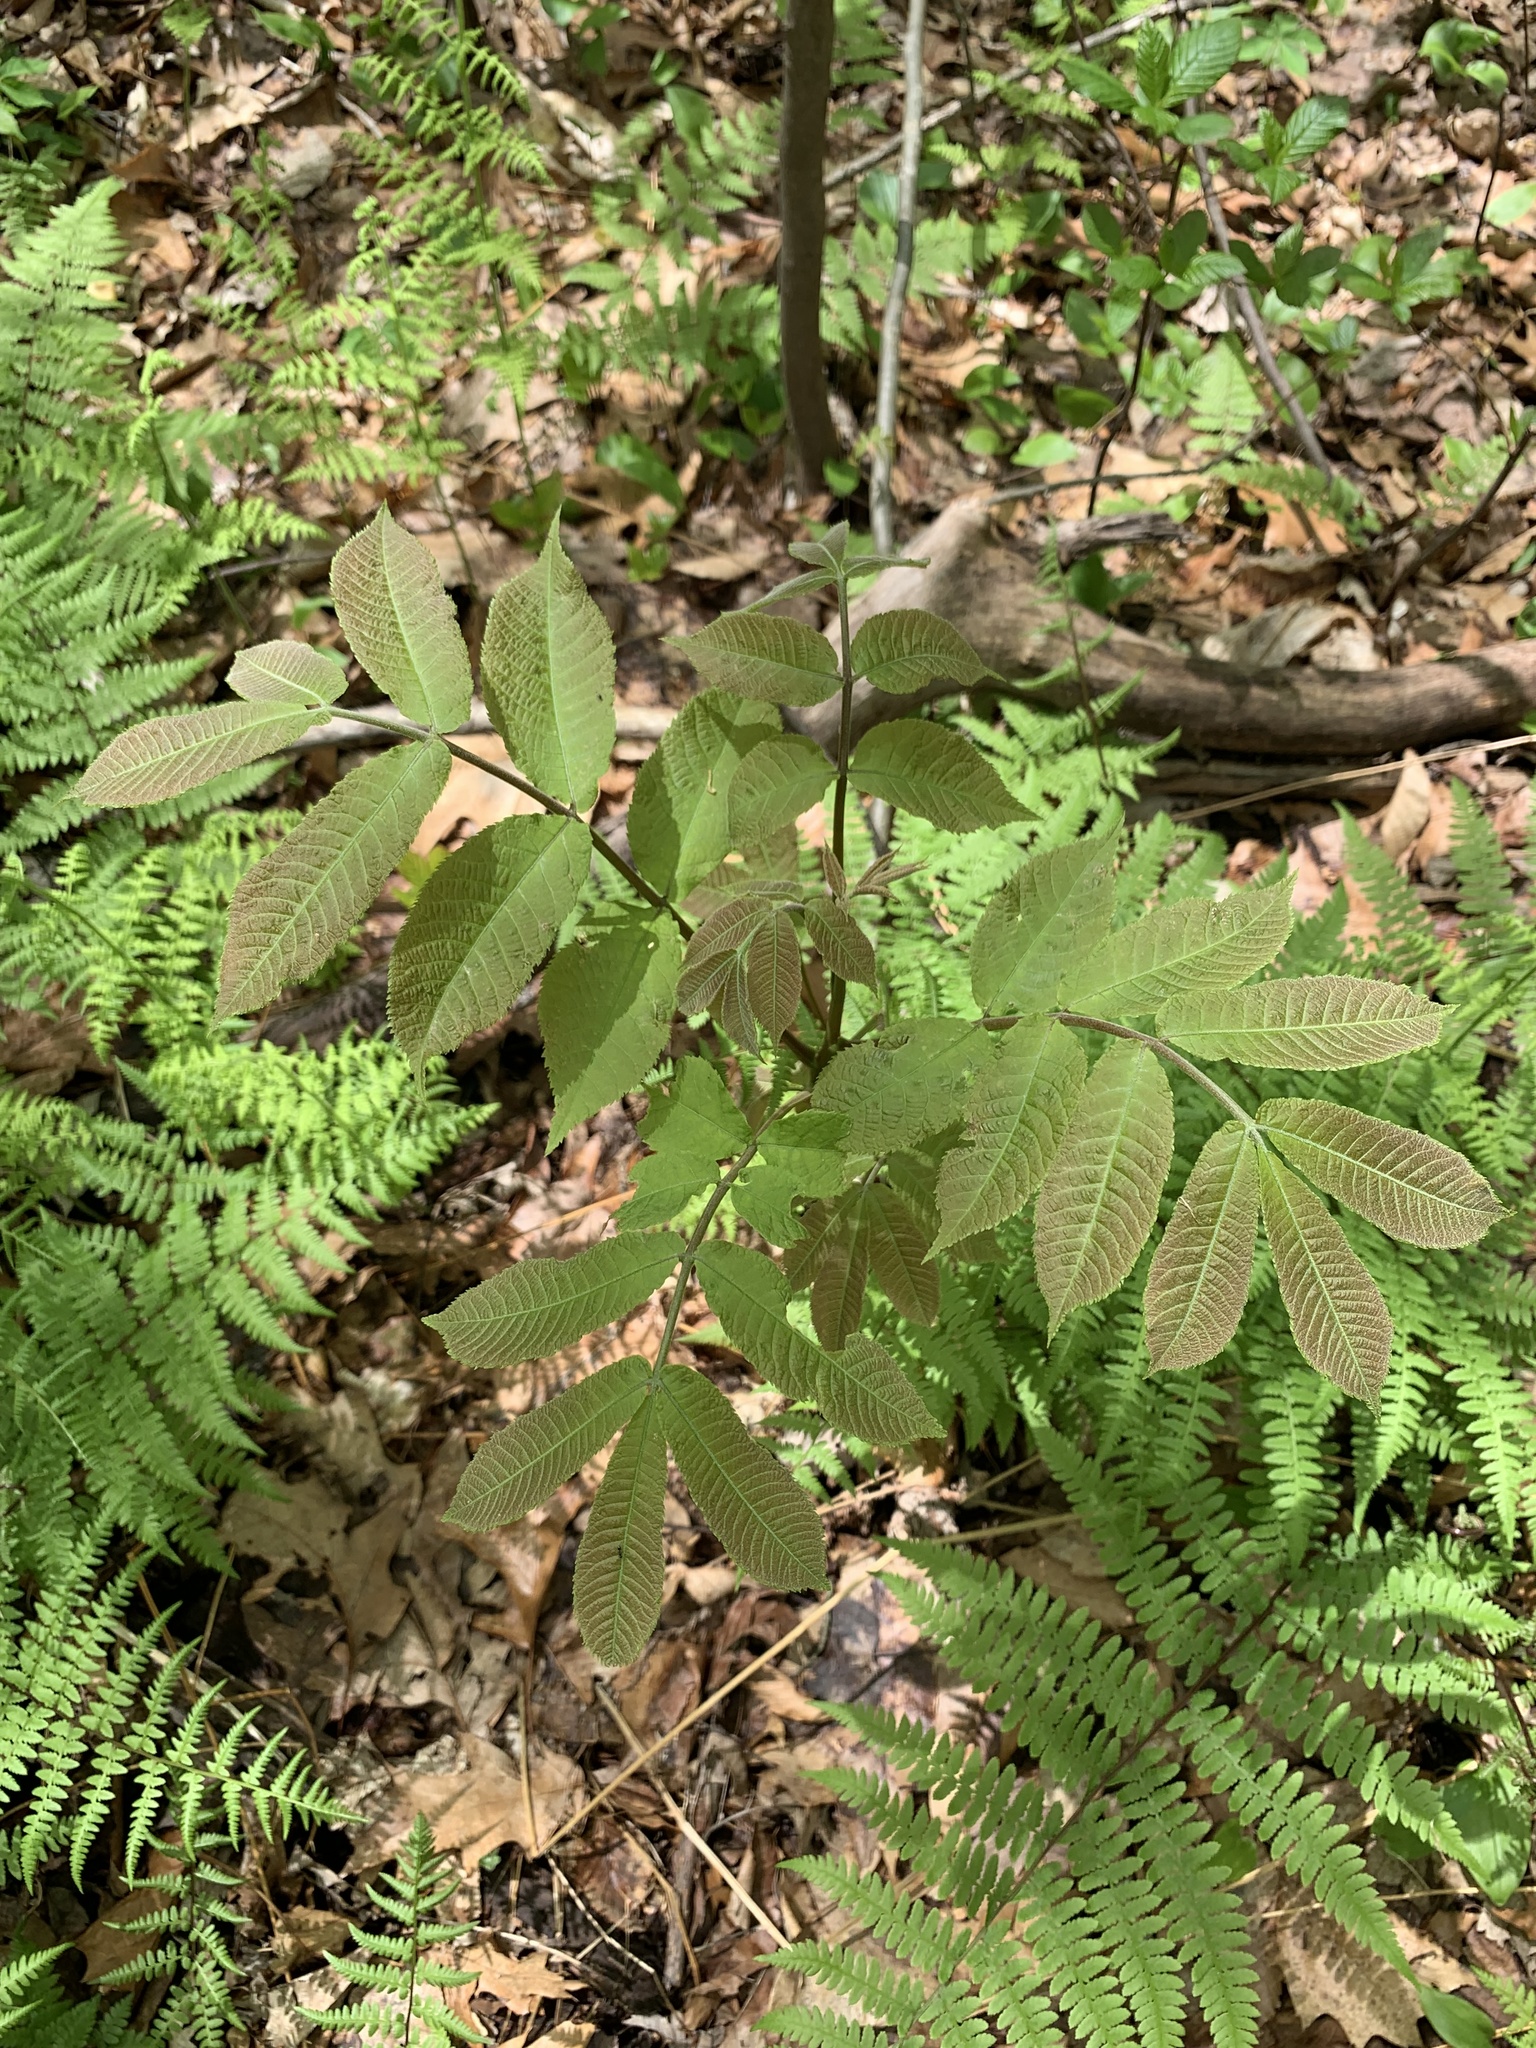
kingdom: Plantae
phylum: Tracheophyta
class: Magnoliopsida
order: Fagales
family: Juglandaceae
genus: Carya
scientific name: Carya cordiformis
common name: Bitternut hickory
